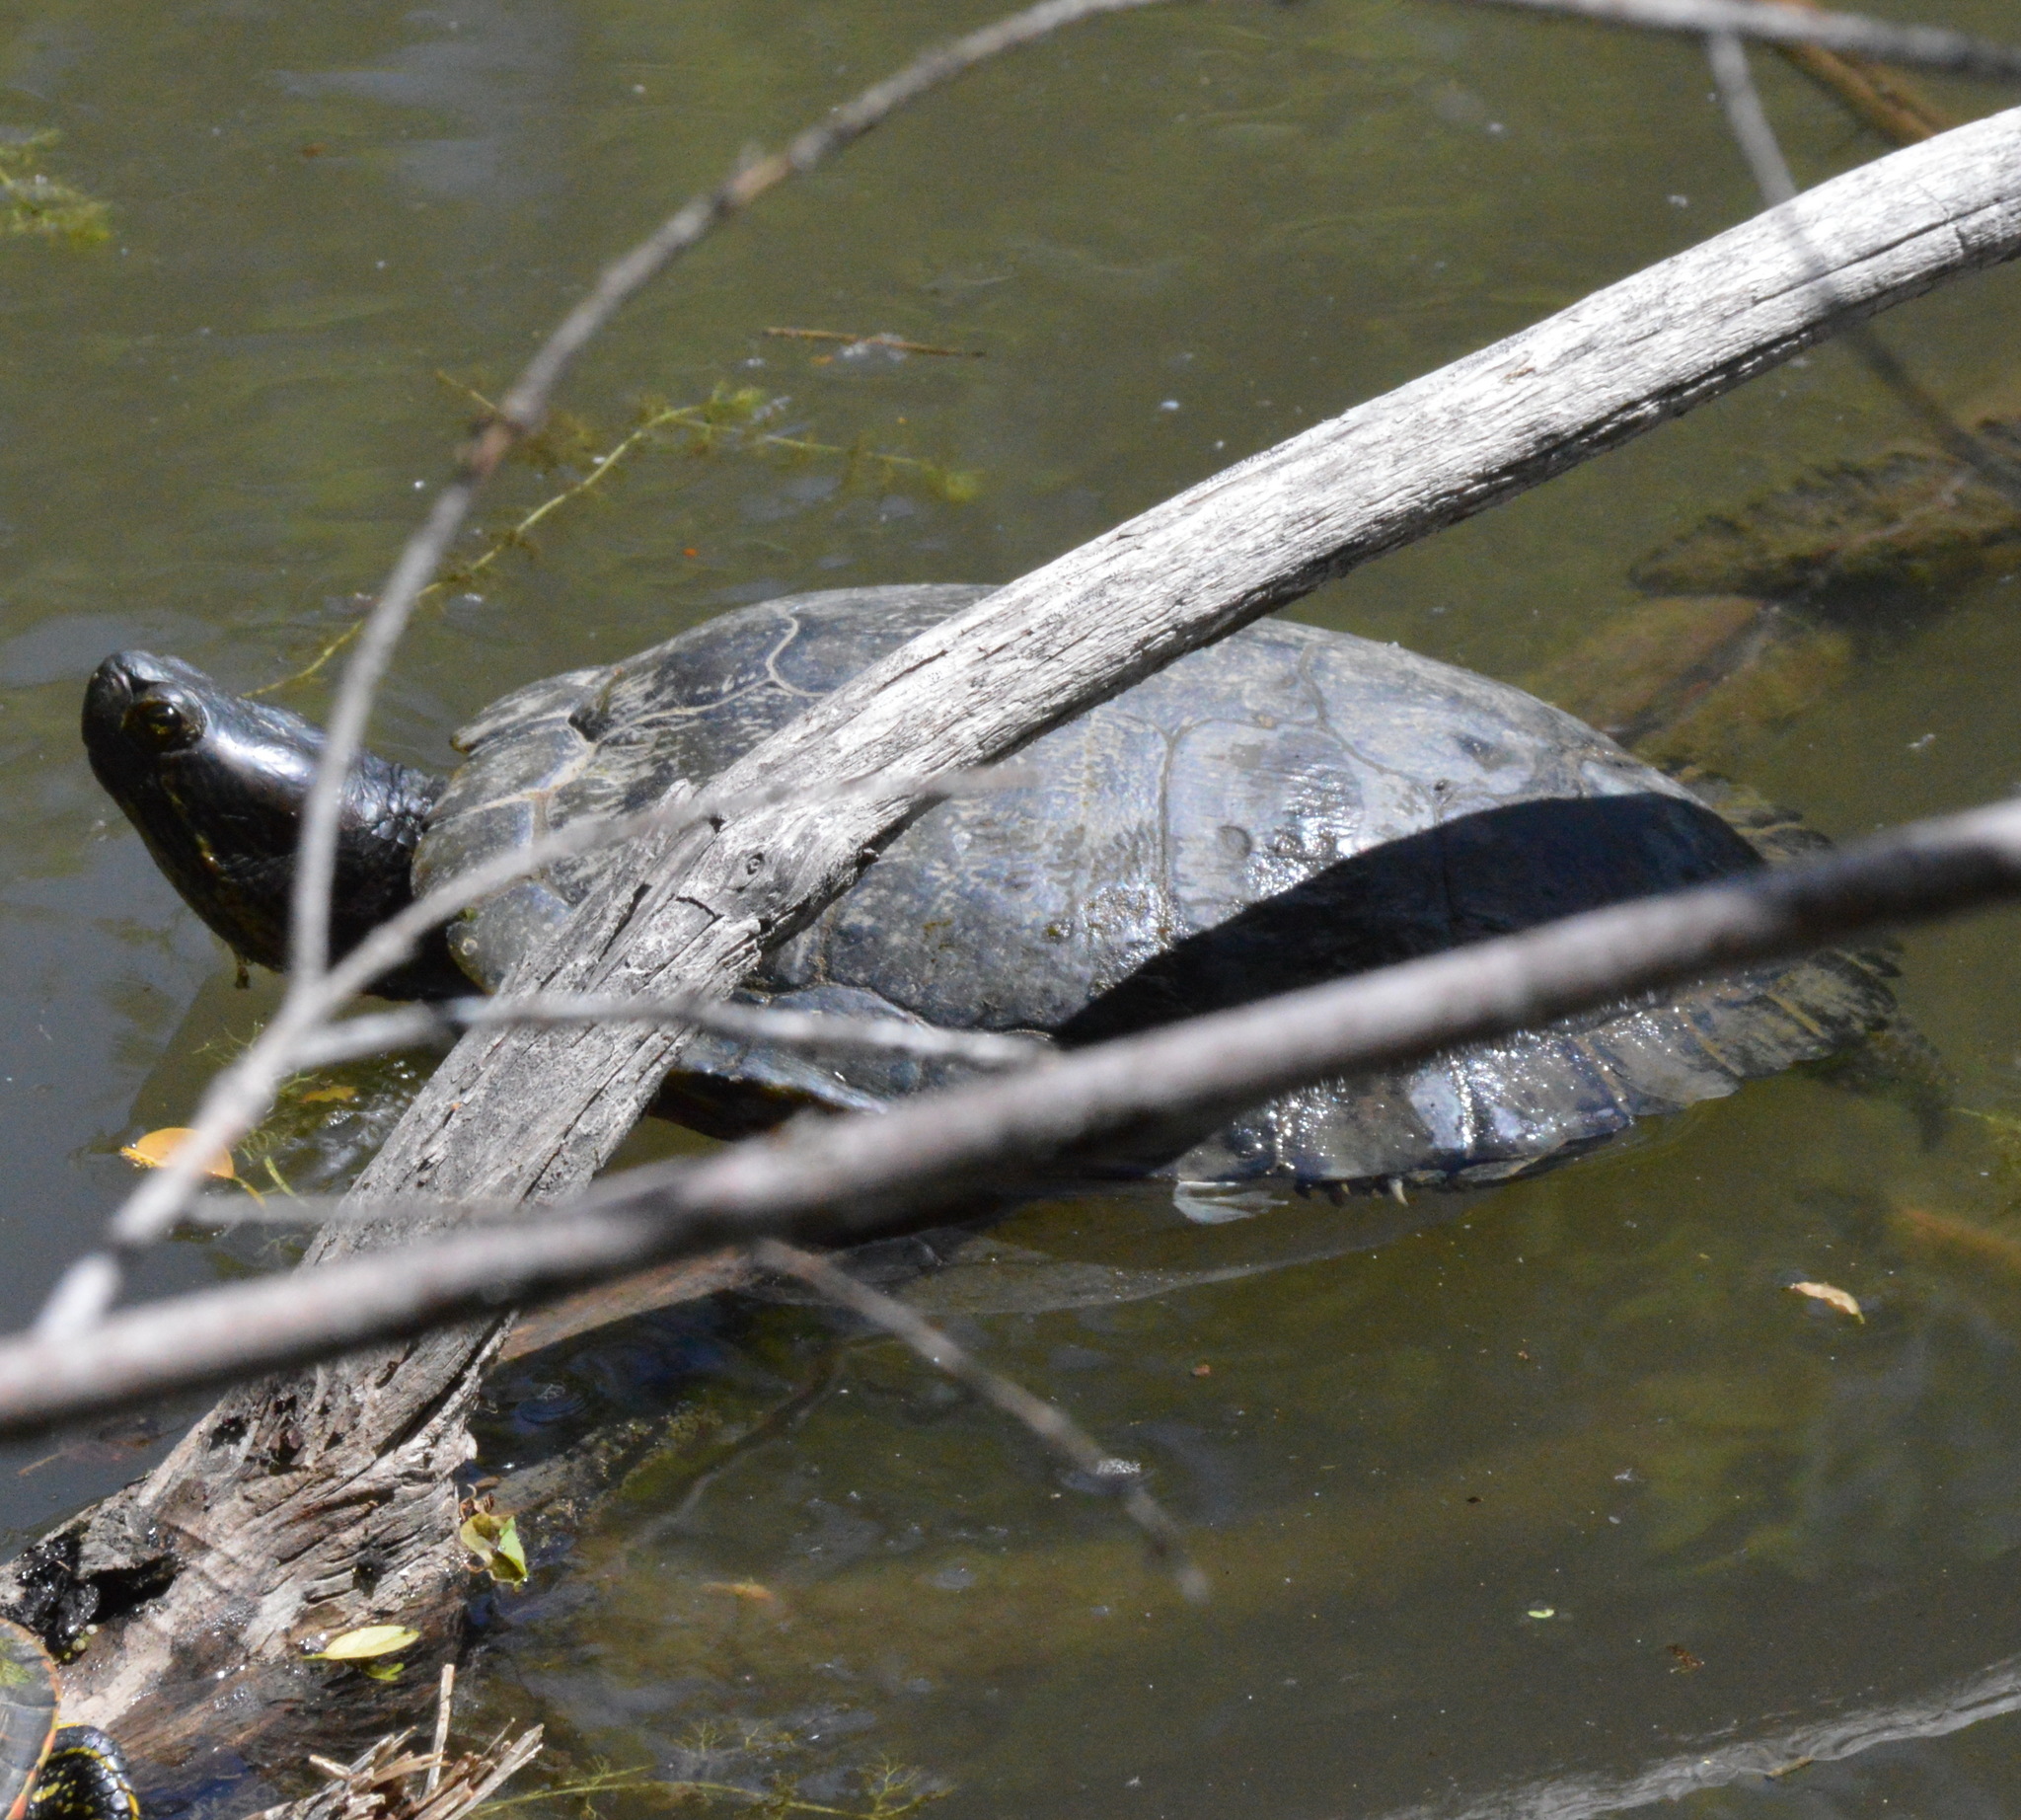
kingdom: Animalia
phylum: Chordata
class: Testudines
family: Emydidae
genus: Trachemys
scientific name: Trachemys scripta
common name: Slider
